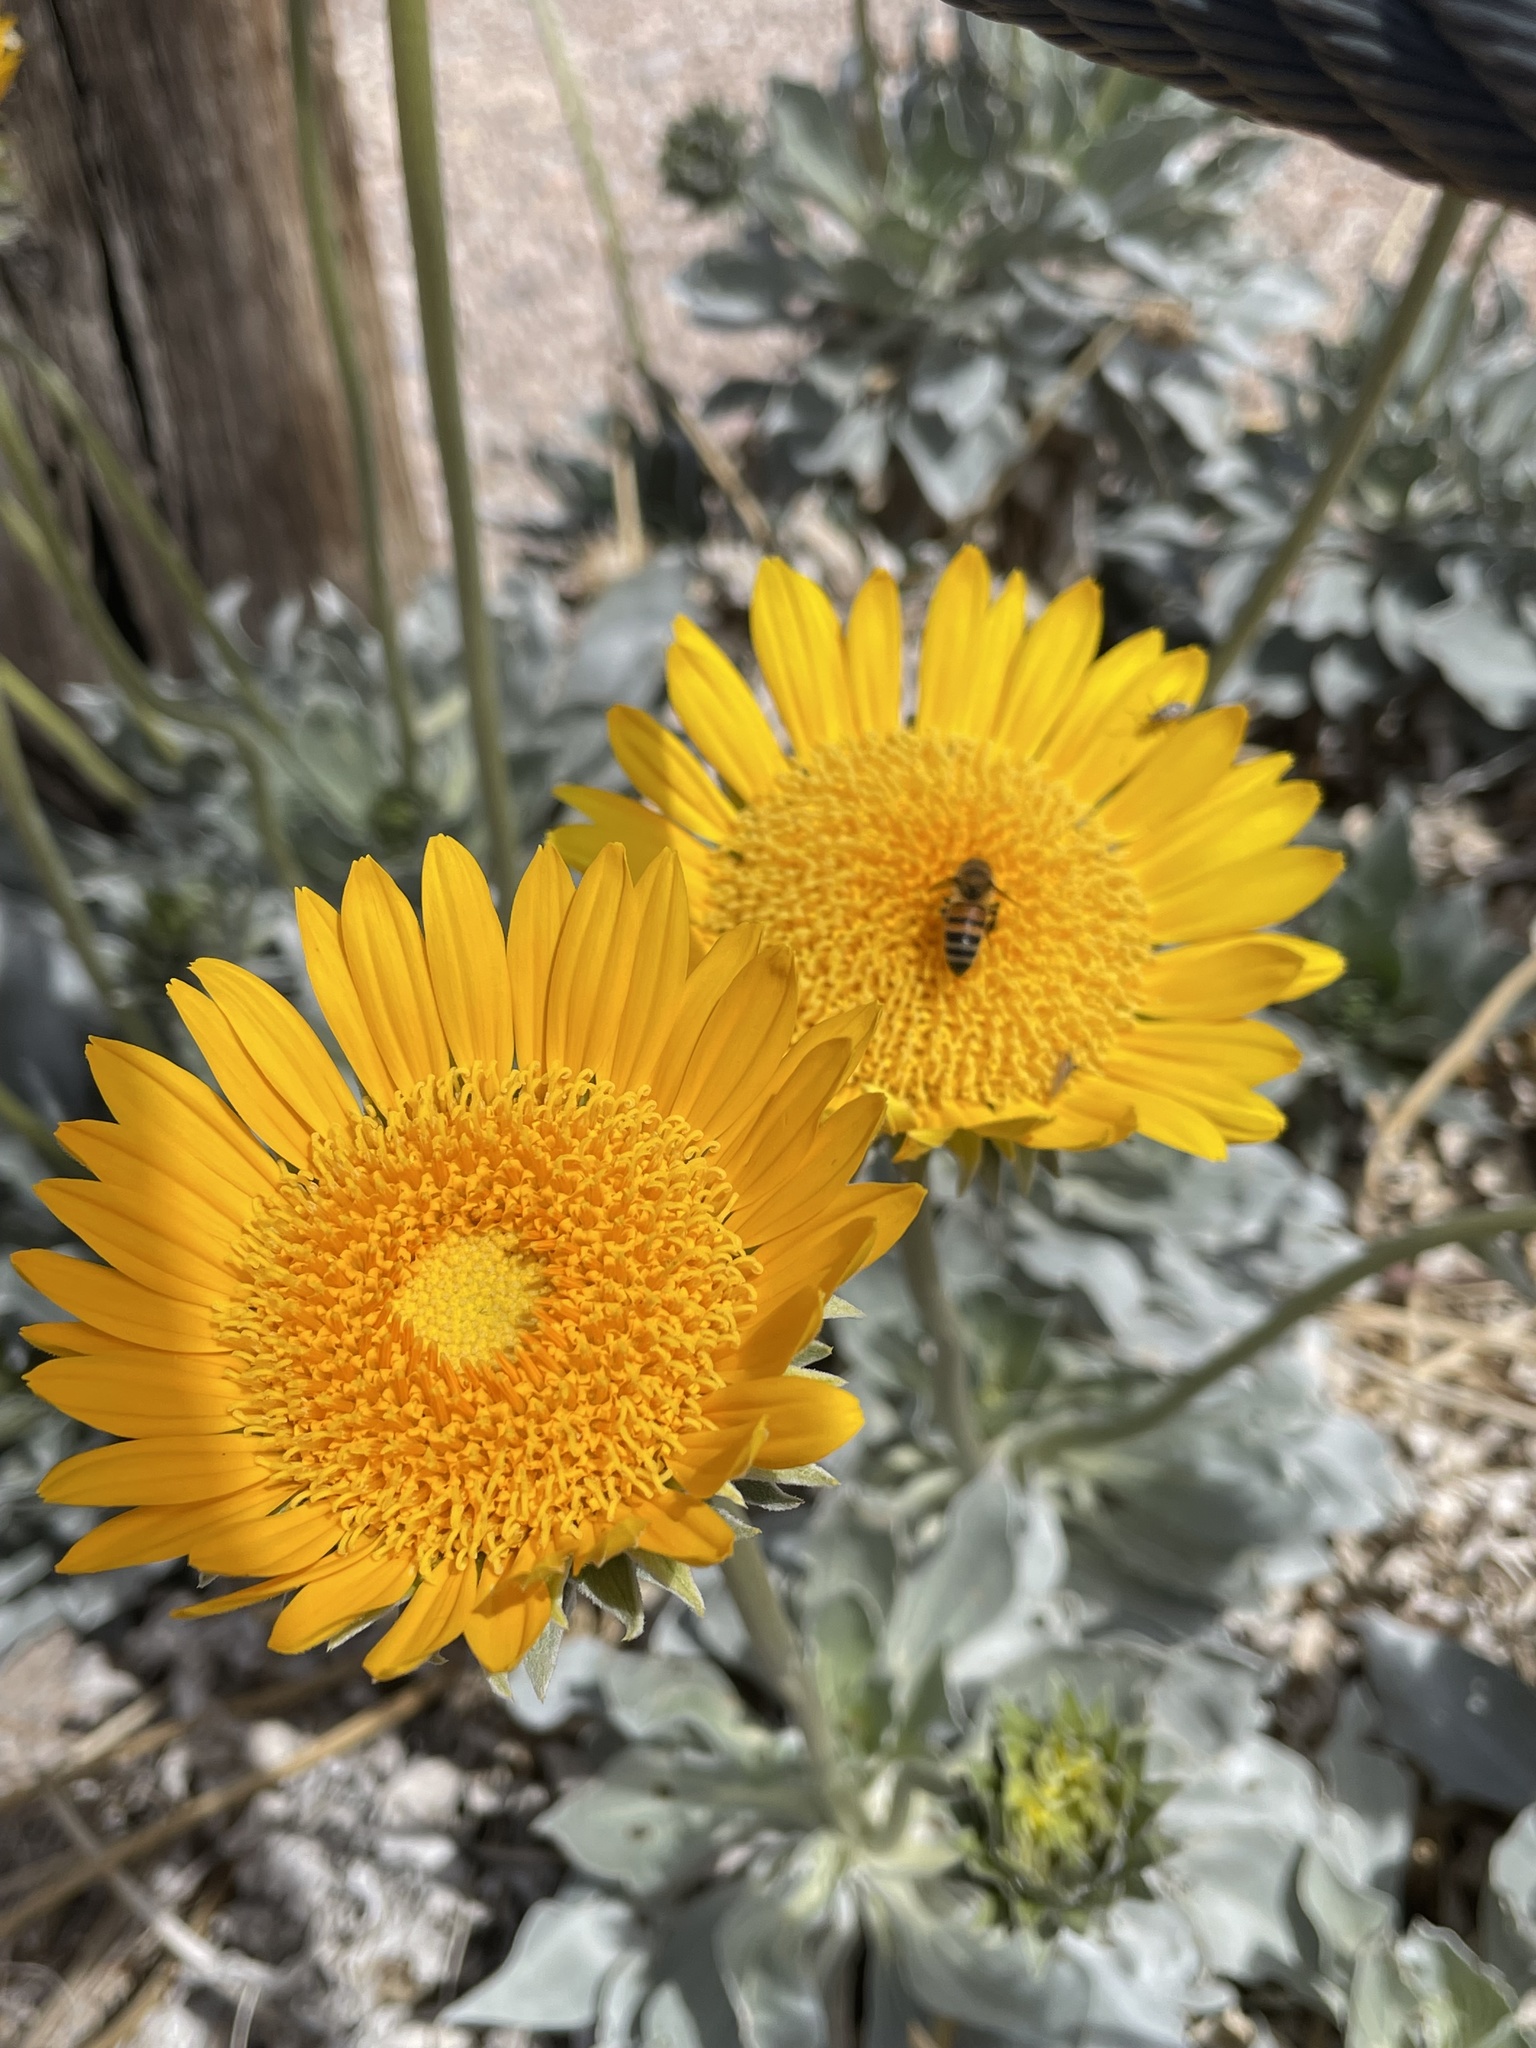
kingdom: Plantae
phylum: Tracheophyta
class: Magnoliopsida
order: Asterales
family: Asteraceae
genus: Enceliopsis
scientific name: Enceliopsis argophylla
